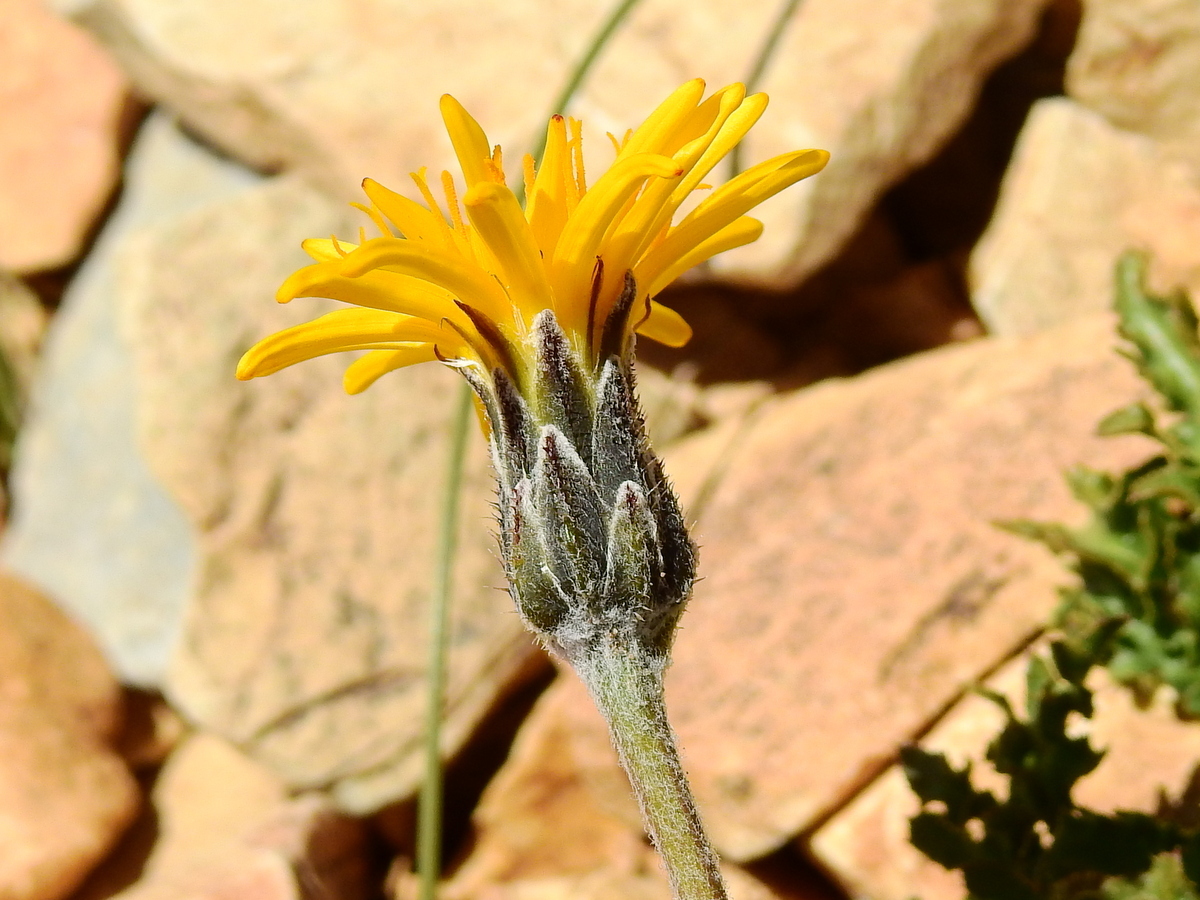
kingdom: Plantae
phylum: Tracheophyta
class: Magnoliopsida
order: Asterales
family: Asteraceae
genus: Hypochaeris
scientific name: Hypochaeris tenuifolia
